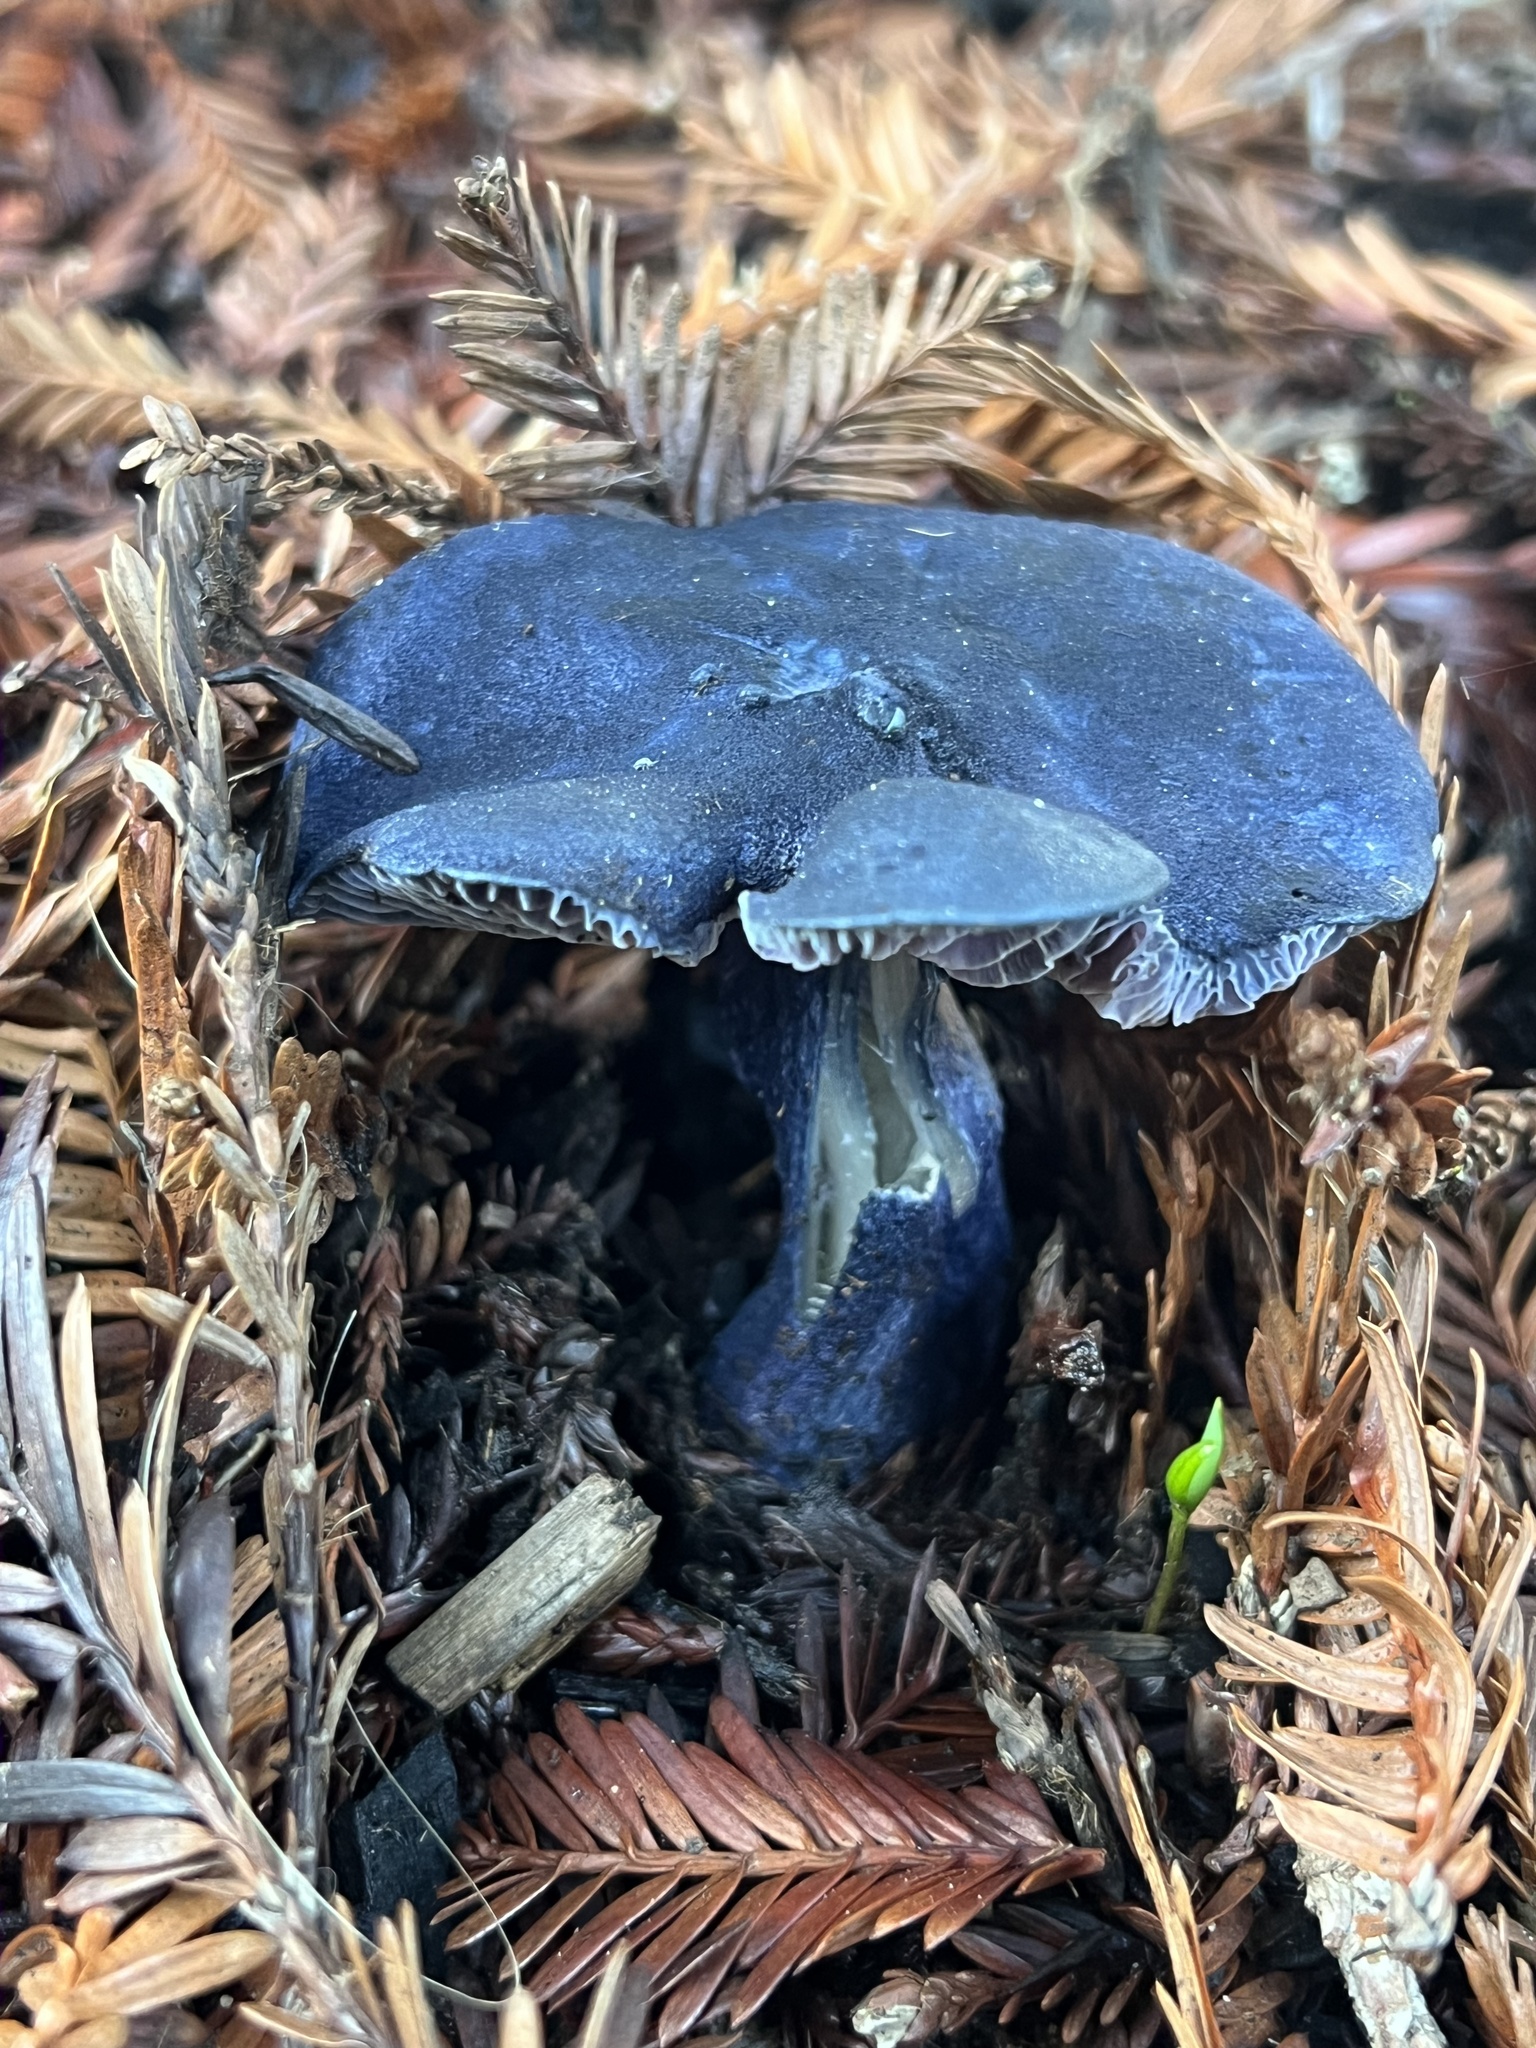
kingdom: Fungi
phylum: Basidiomycota
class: Agaricomycetes
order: Agaricales
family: Entolomataceae
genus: Entoloma
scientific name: Entoloma subcarneum
